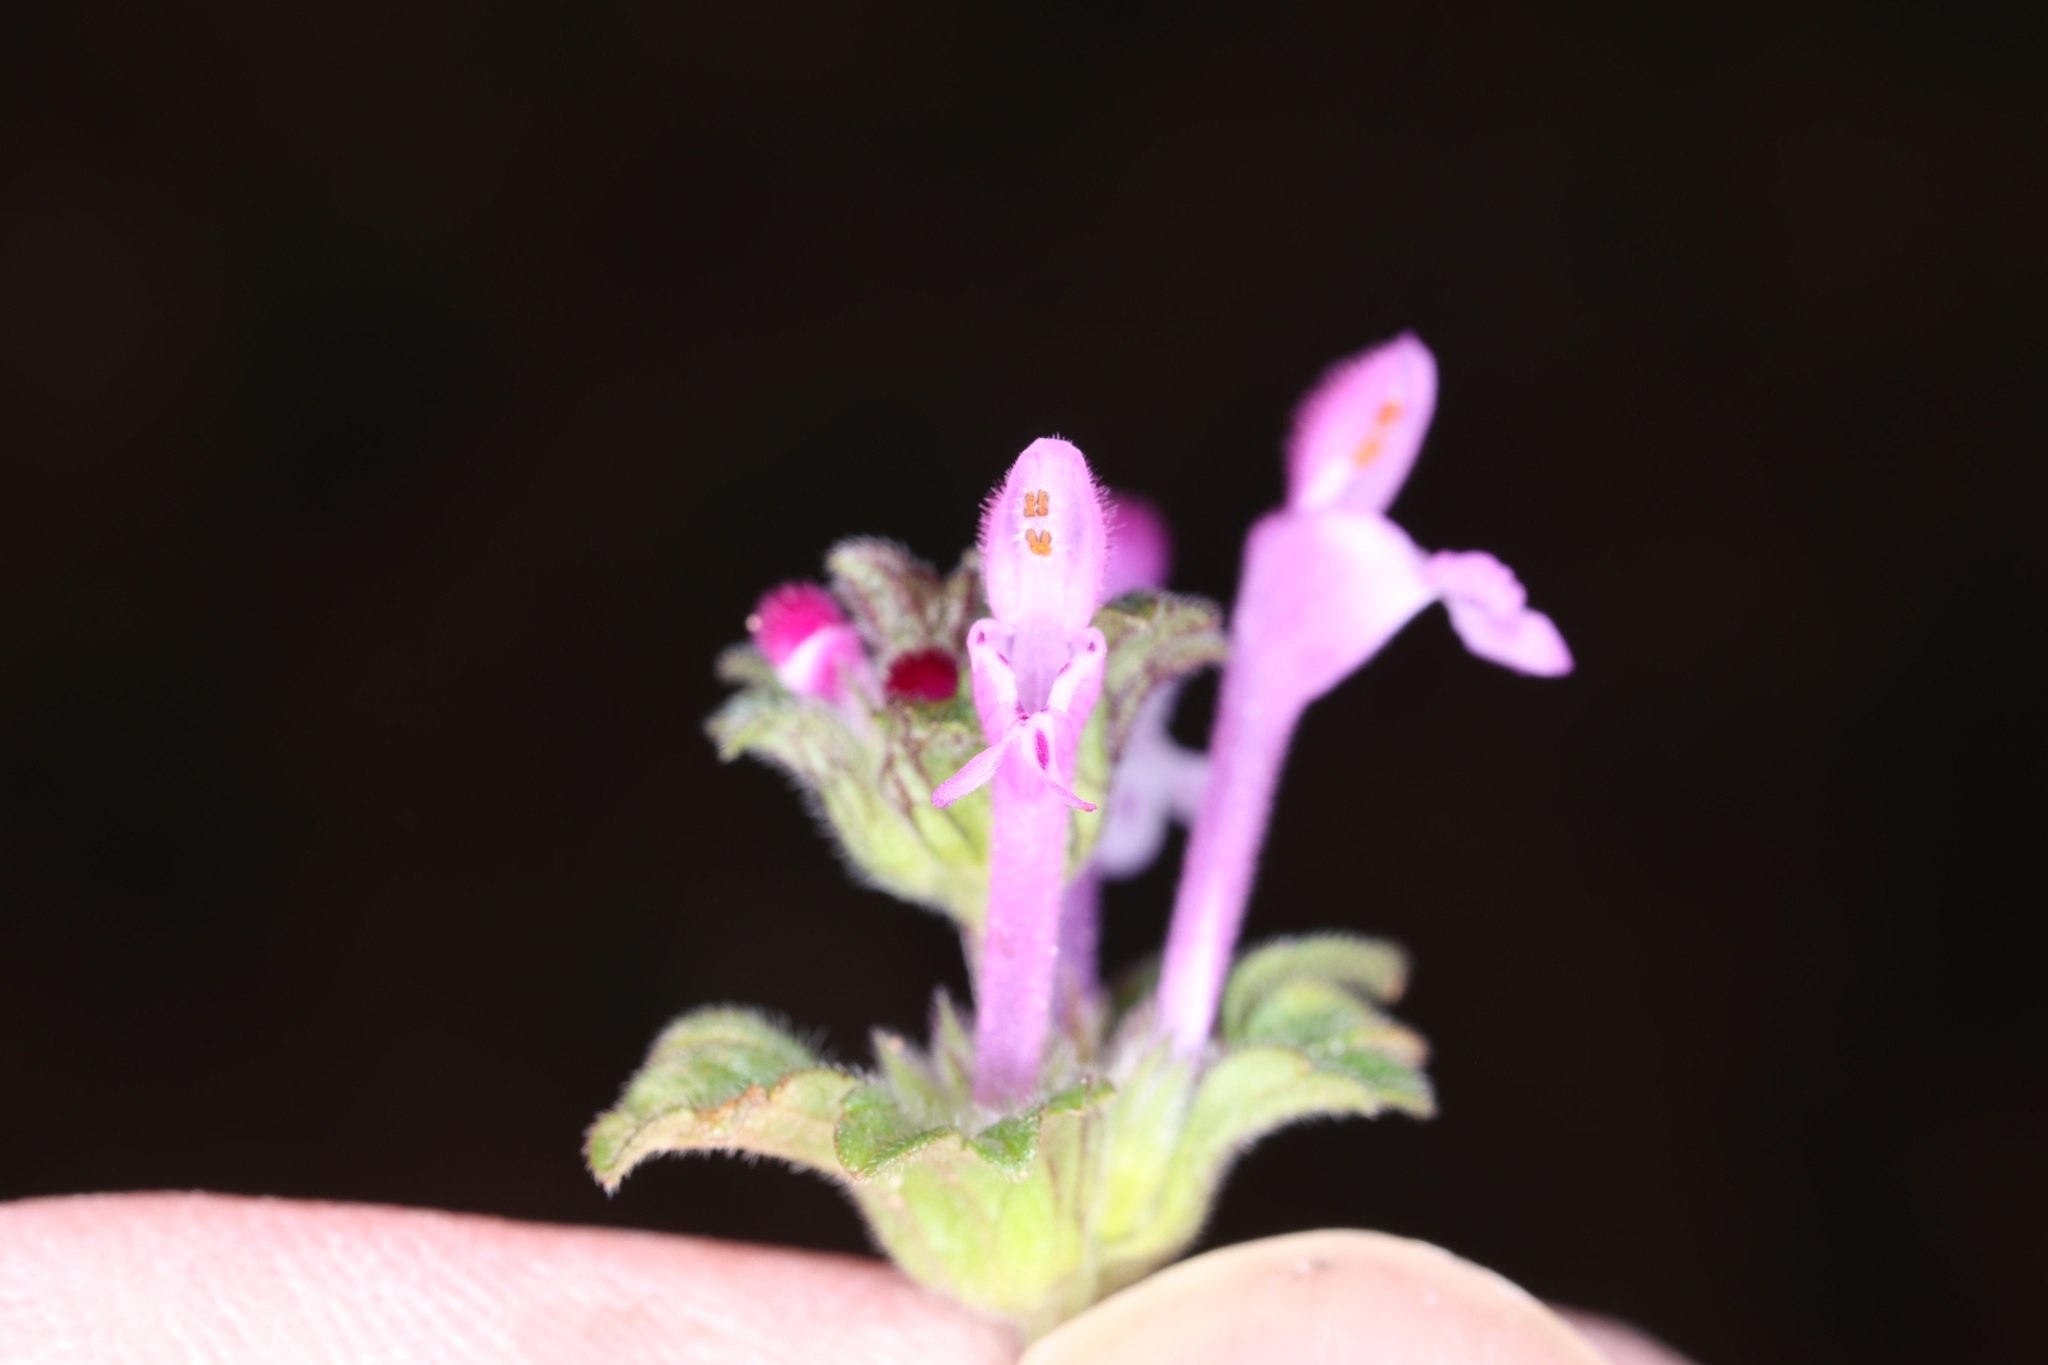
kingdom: Plantae
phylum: Tracheophyta
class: Magnoliopsida
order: Lamiales
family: Lamiaceae
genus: Lamium
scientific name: Lamium amplexicaule
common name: Henbit dead-nettle
